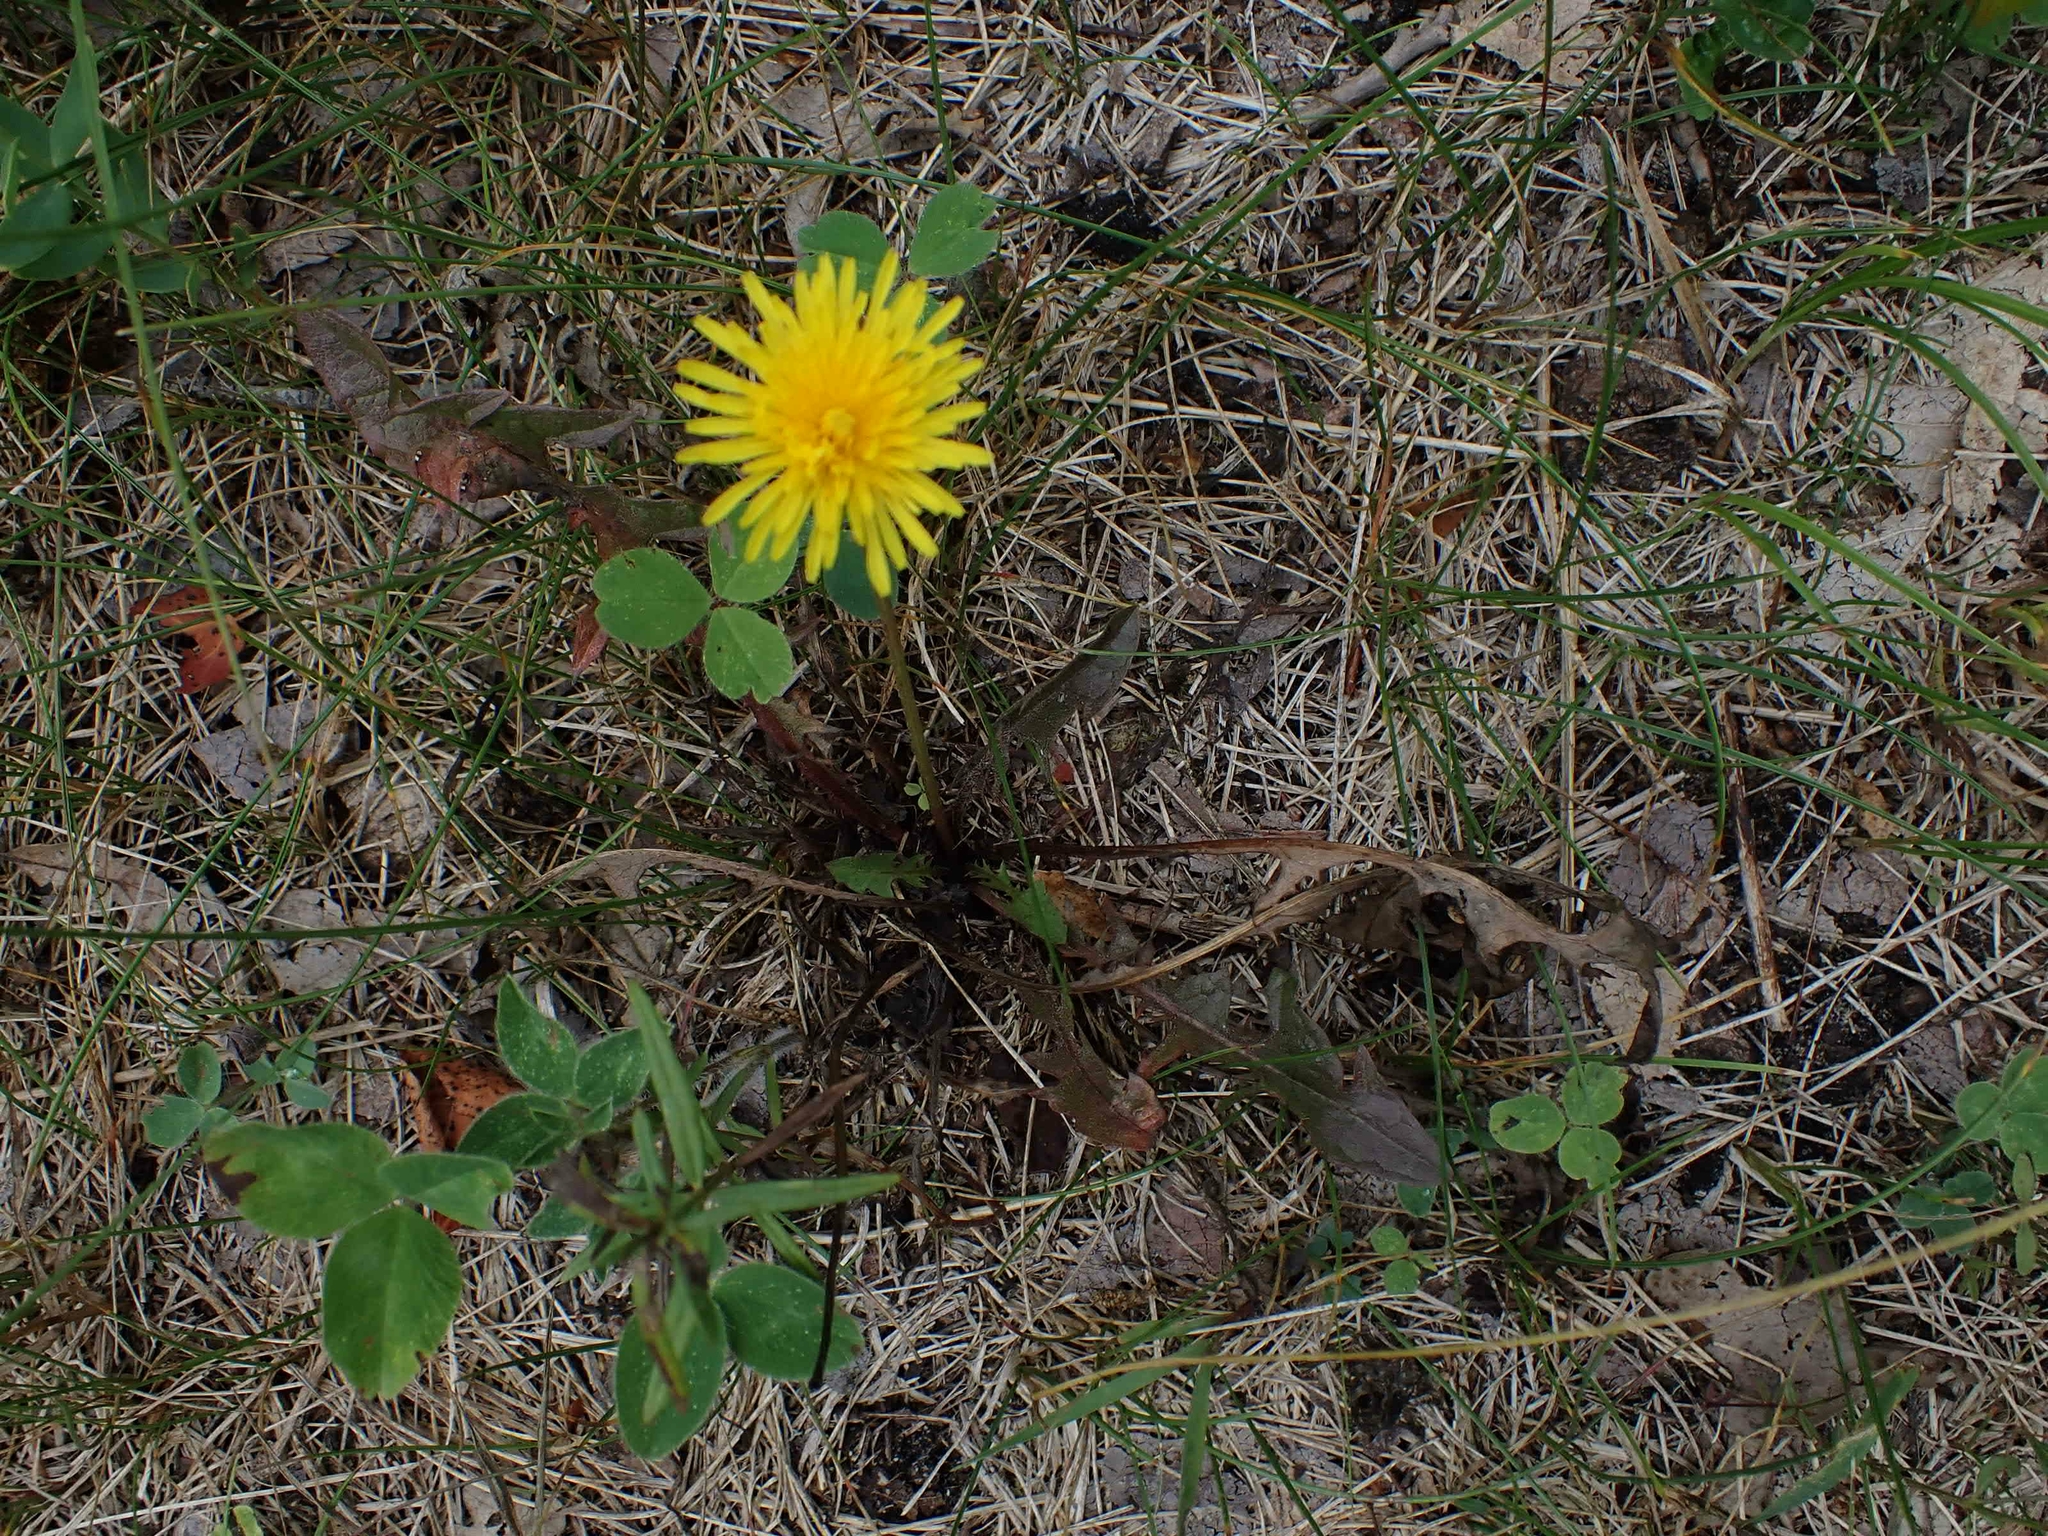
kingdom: Plantae
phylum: Tracheophyta
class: Magnoliopsida
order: Asterales
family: Asteraceae
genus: Taraxacum
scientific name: Taraxacum officinale
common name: Common dandelion
